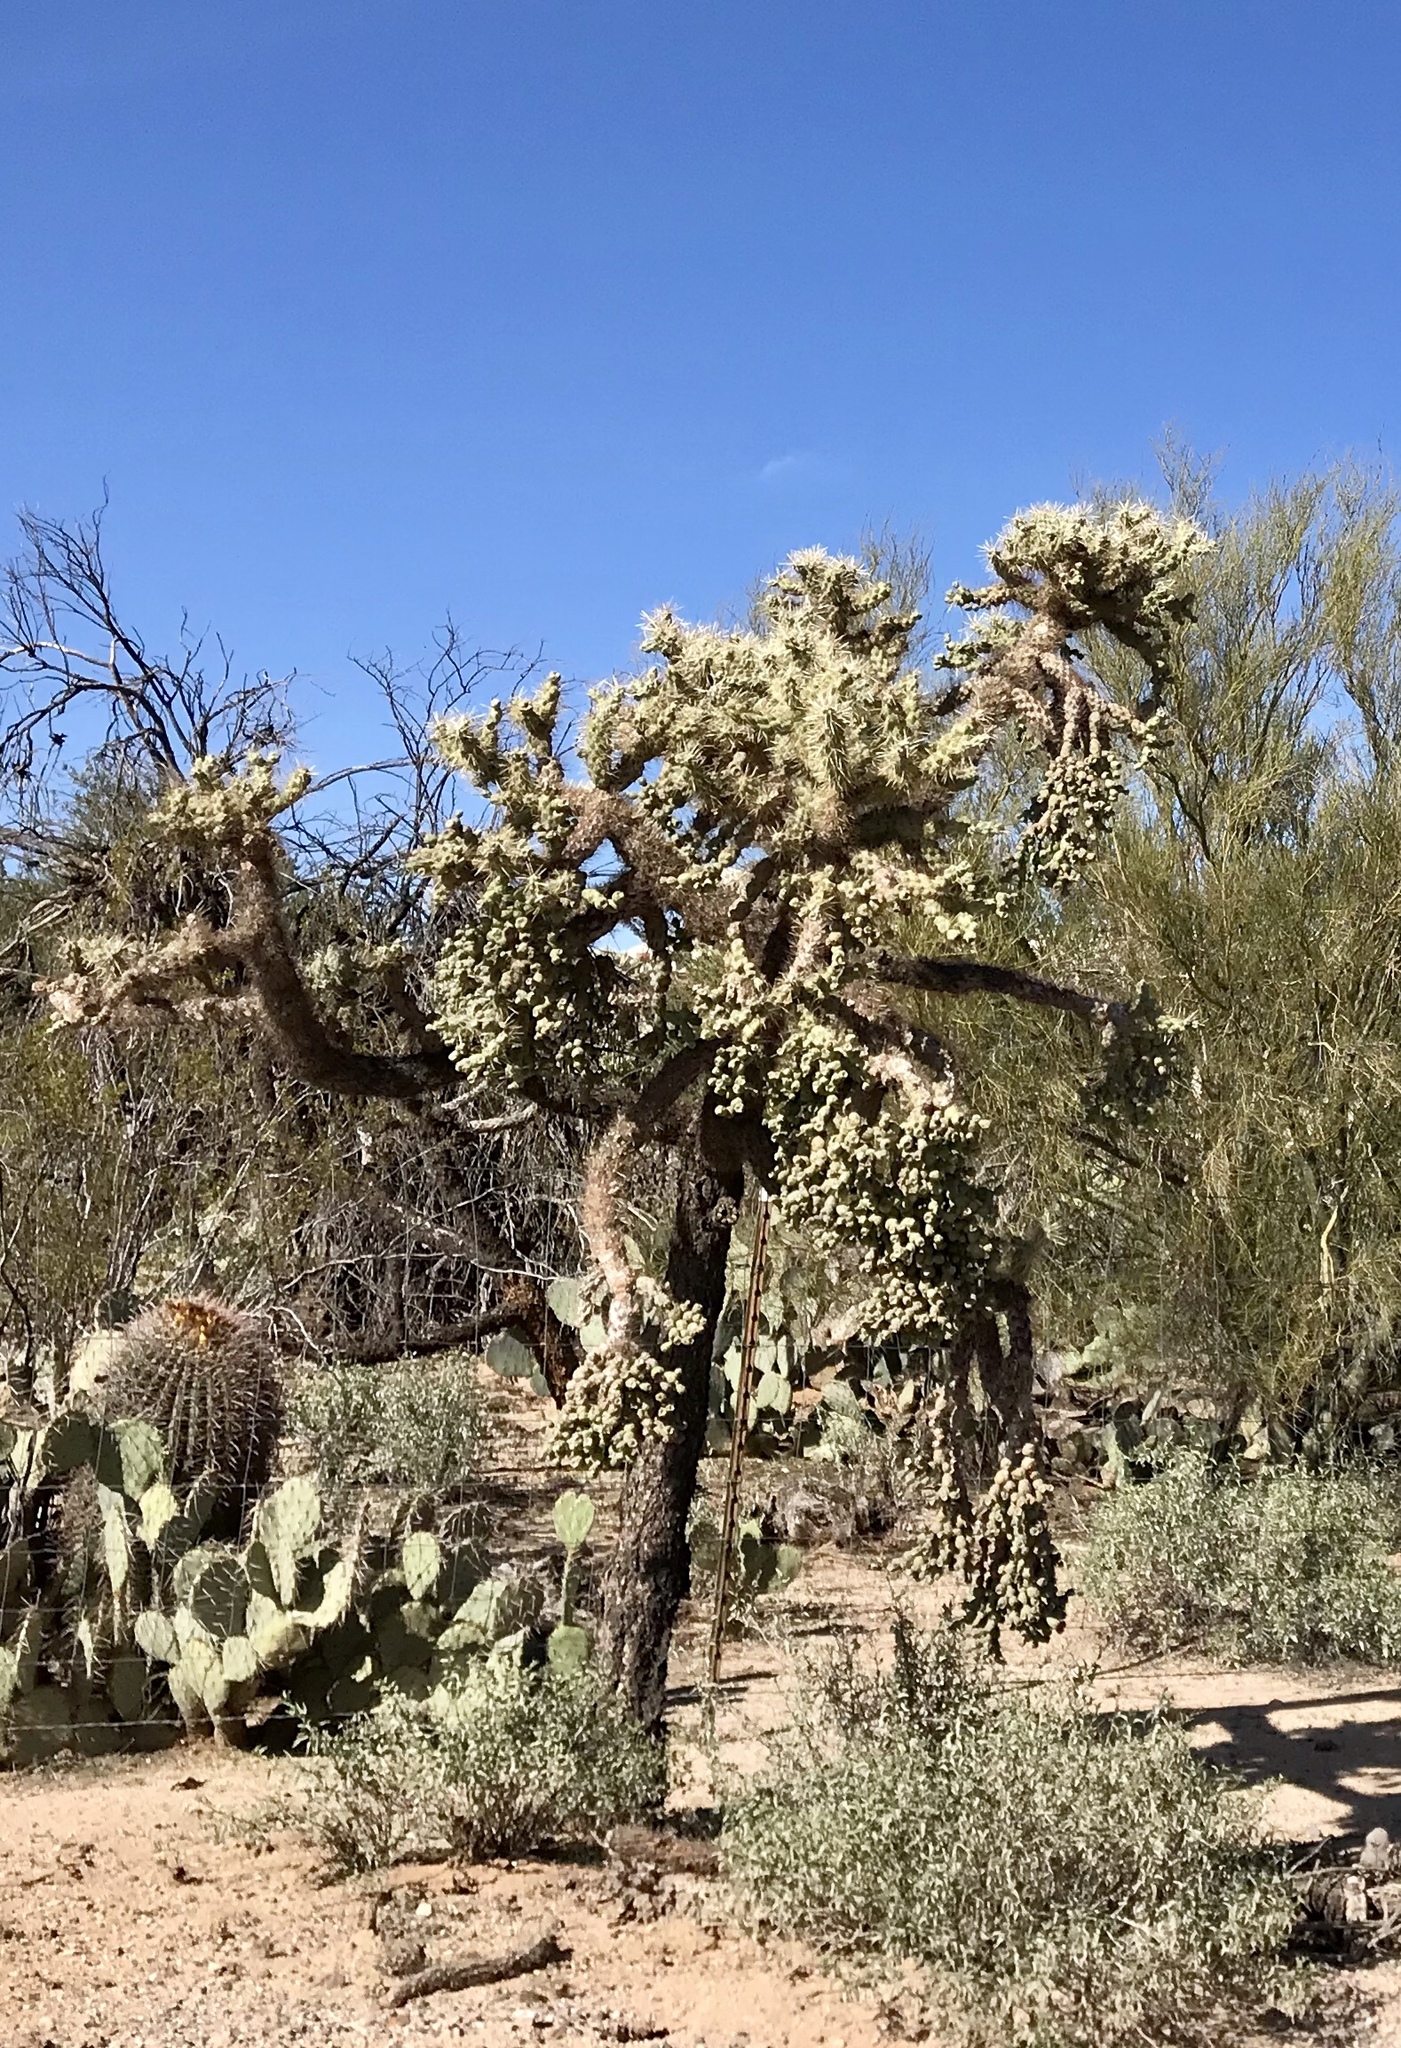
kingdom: Plantae
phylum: Tracheophyta
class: Magnoliopsida
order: Caryophyllales
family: Cactaceae
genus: Cylindropuntia
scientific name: Cylindropuntia fulgida
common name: Jumping cholla
